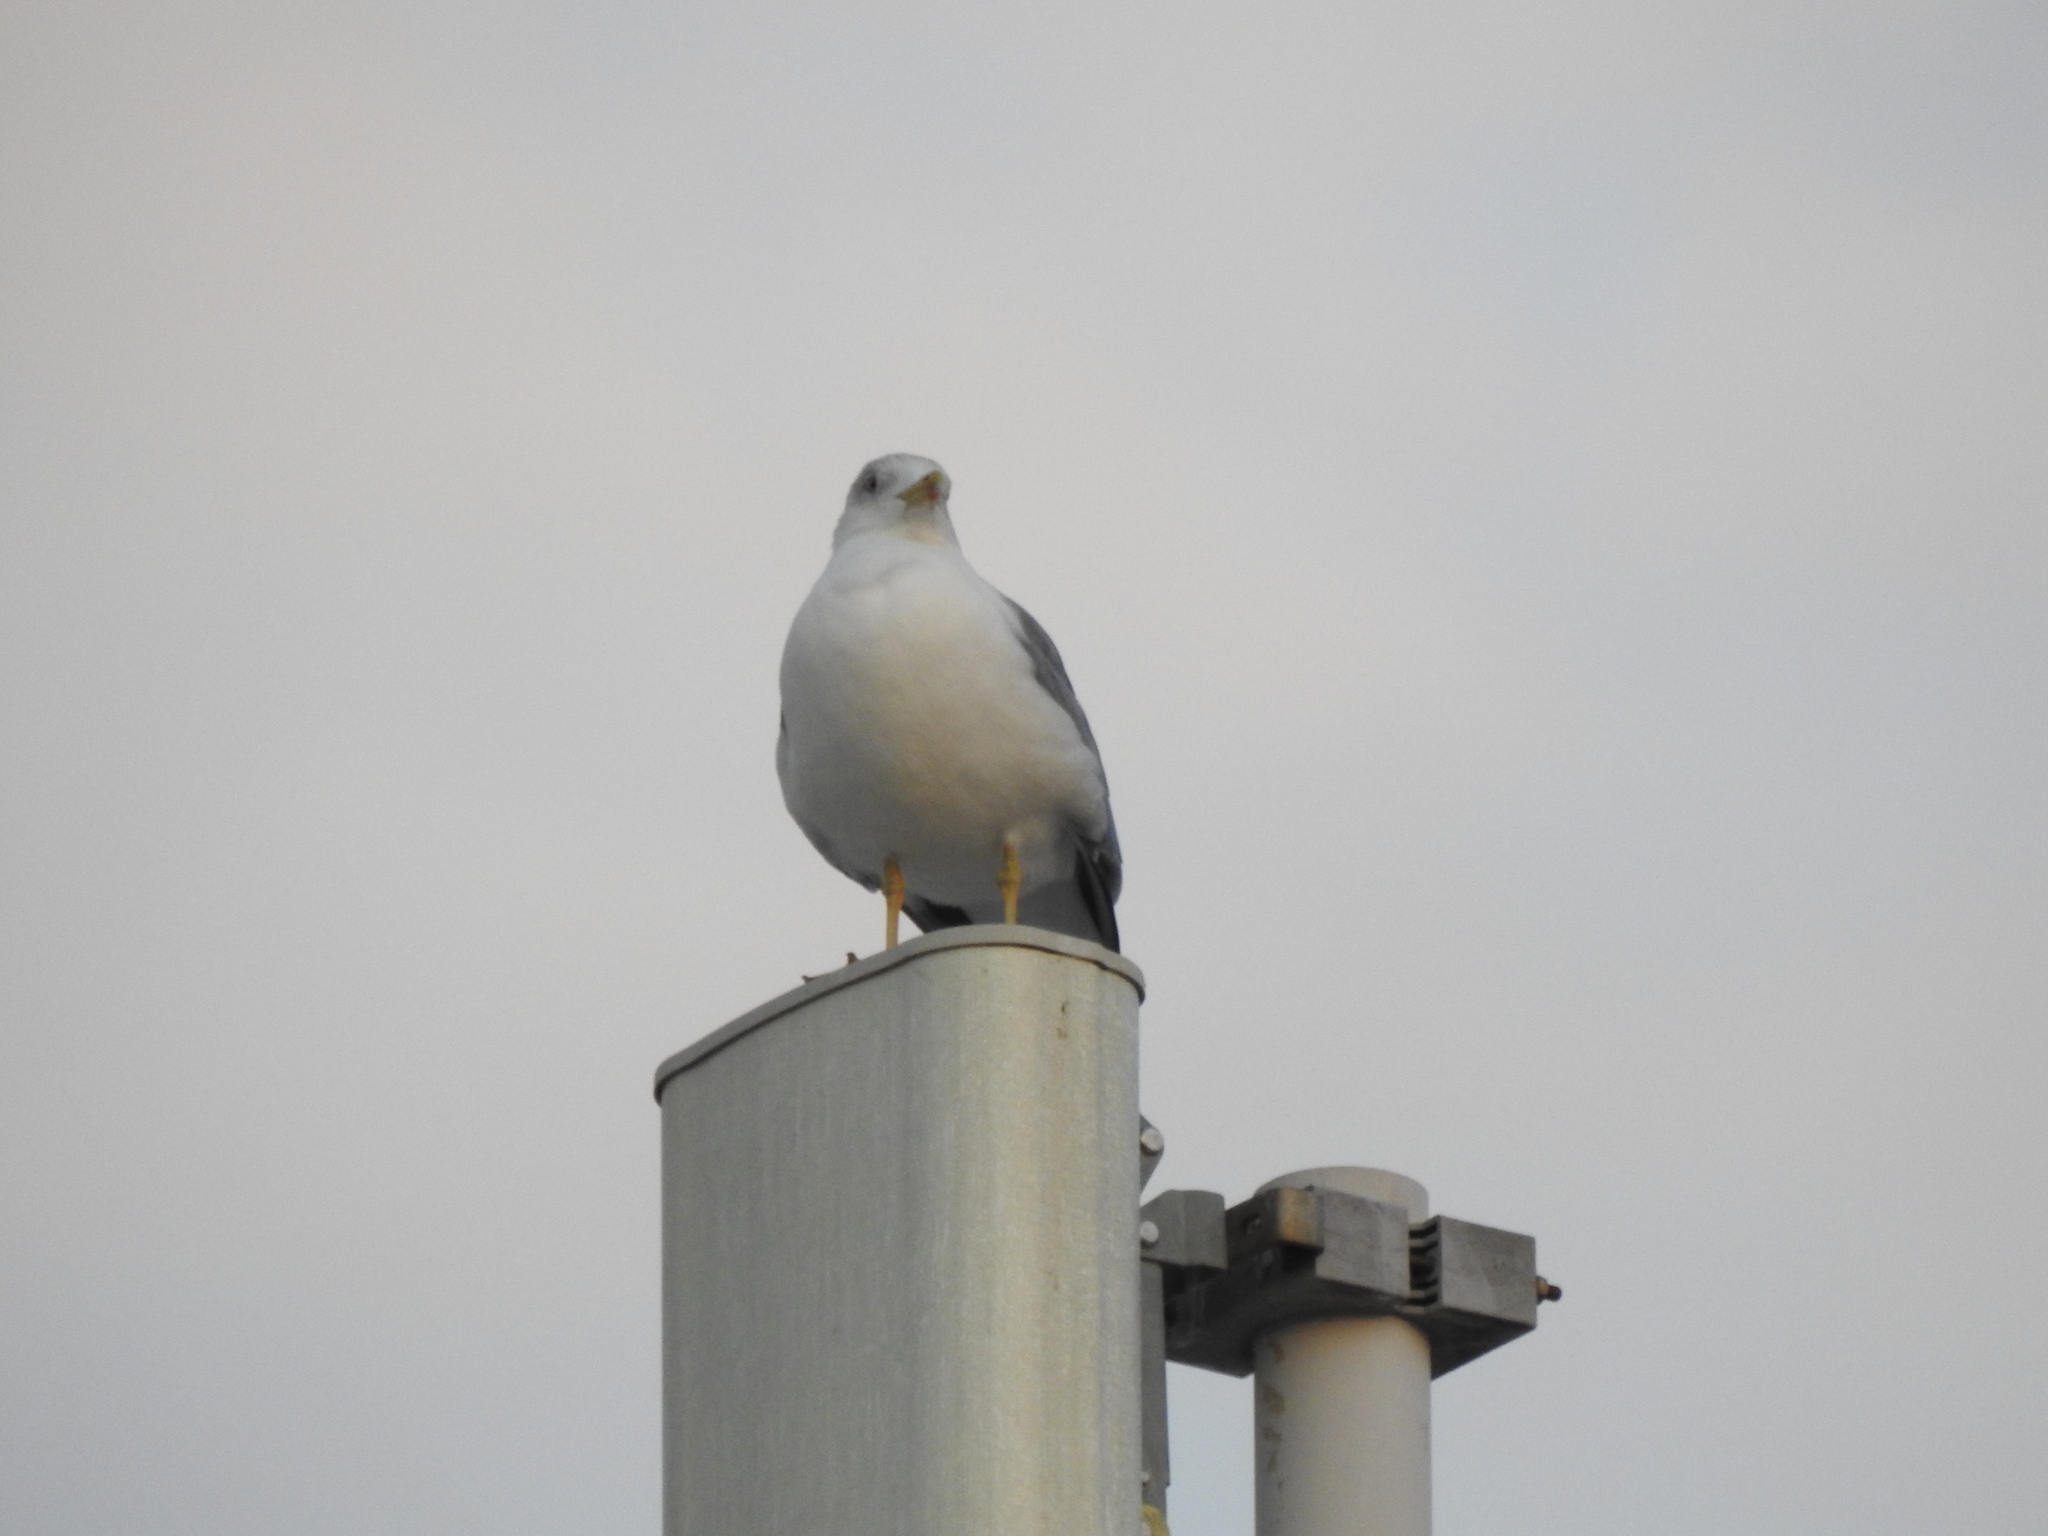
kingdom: Animalia
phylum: Chordata
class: Aves
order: Charadriiformes
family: Laridae
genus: Larus
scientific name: Larus michahellis
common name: Yellow-legged gull
